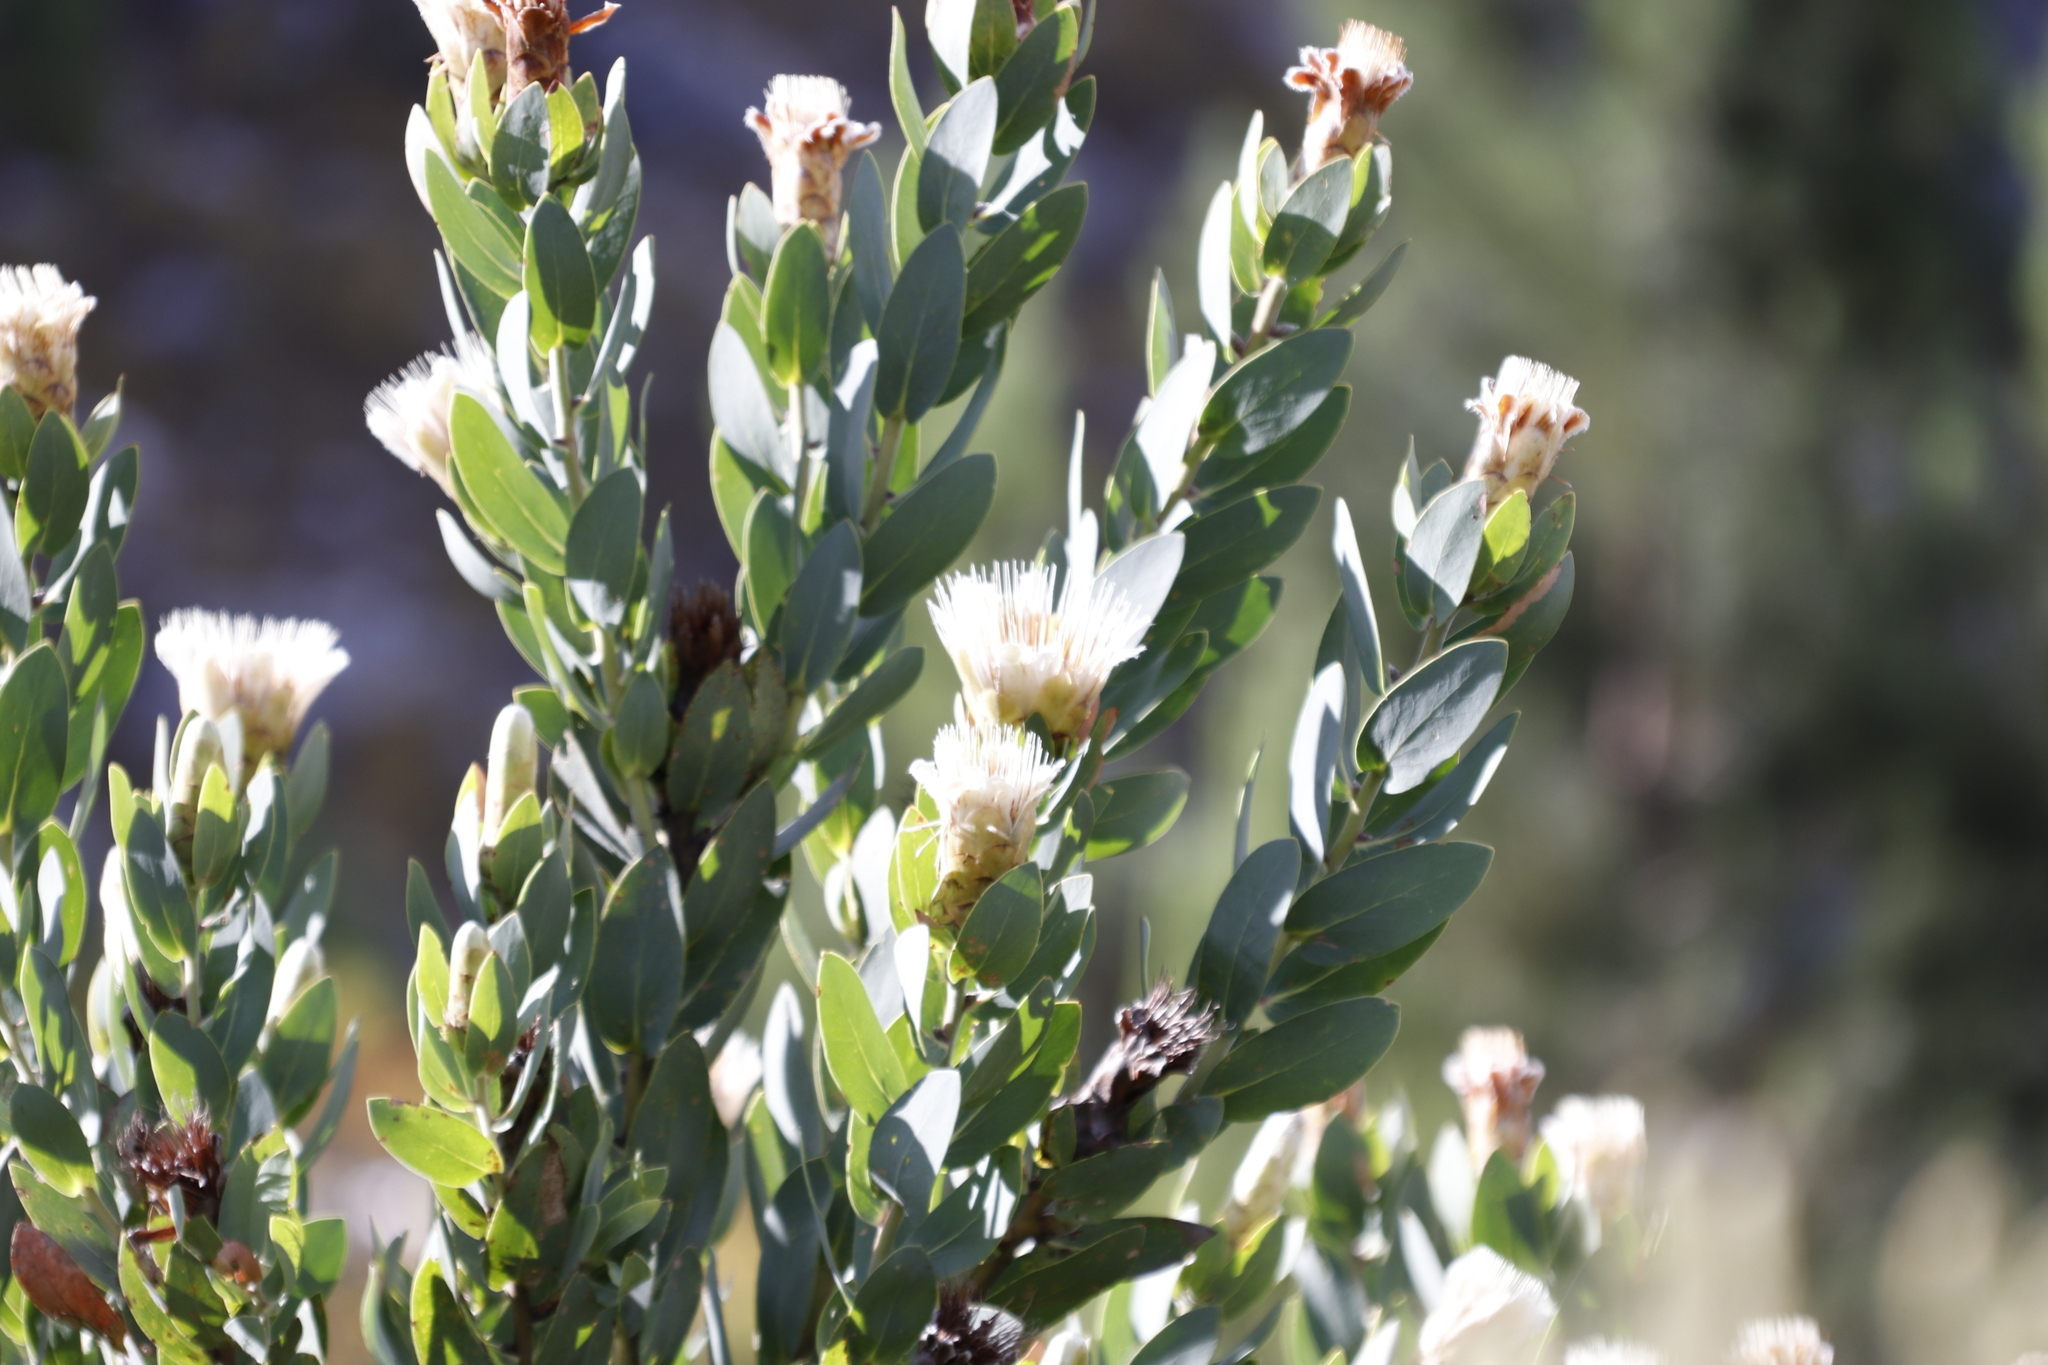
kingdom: Plantae
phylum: Tracheophyta
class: Magnoliopsida
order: Proteales
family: Proteaceae
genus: Protea
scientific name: Protea lacticolor
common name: Hottentot sugarbush
